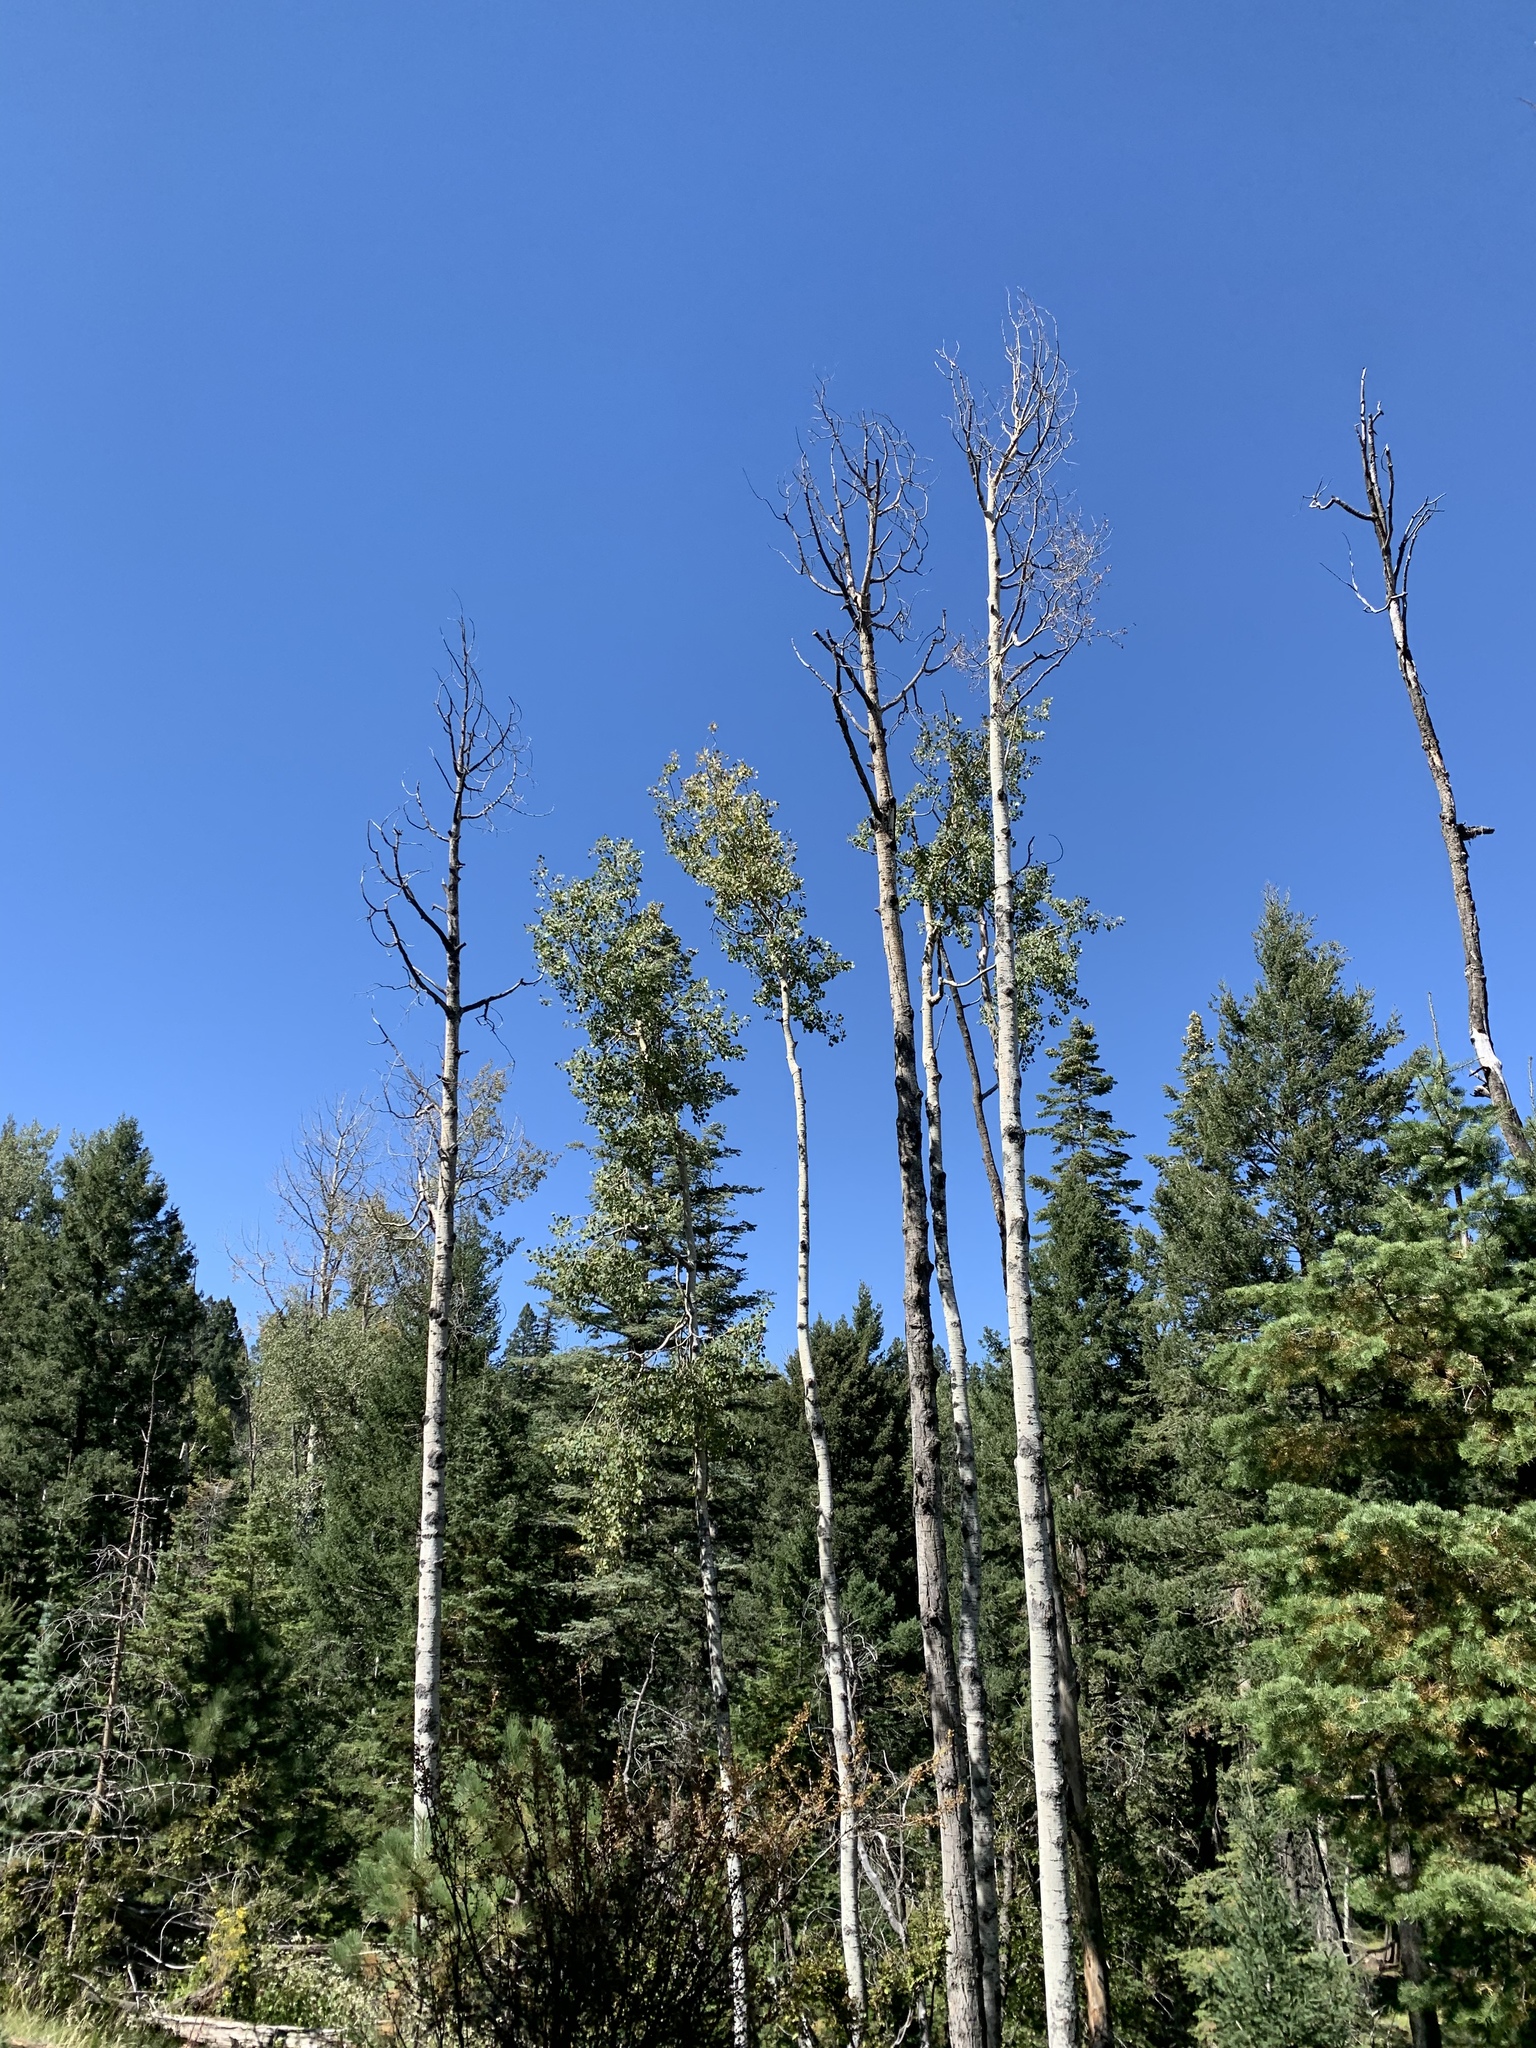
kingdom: Plantae
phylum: Tracheophyta
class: Magnoliopsida
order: Malpighiales
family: Salicaceae
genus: Populus
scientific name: Populus tremuloides
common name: Quaking aspen
